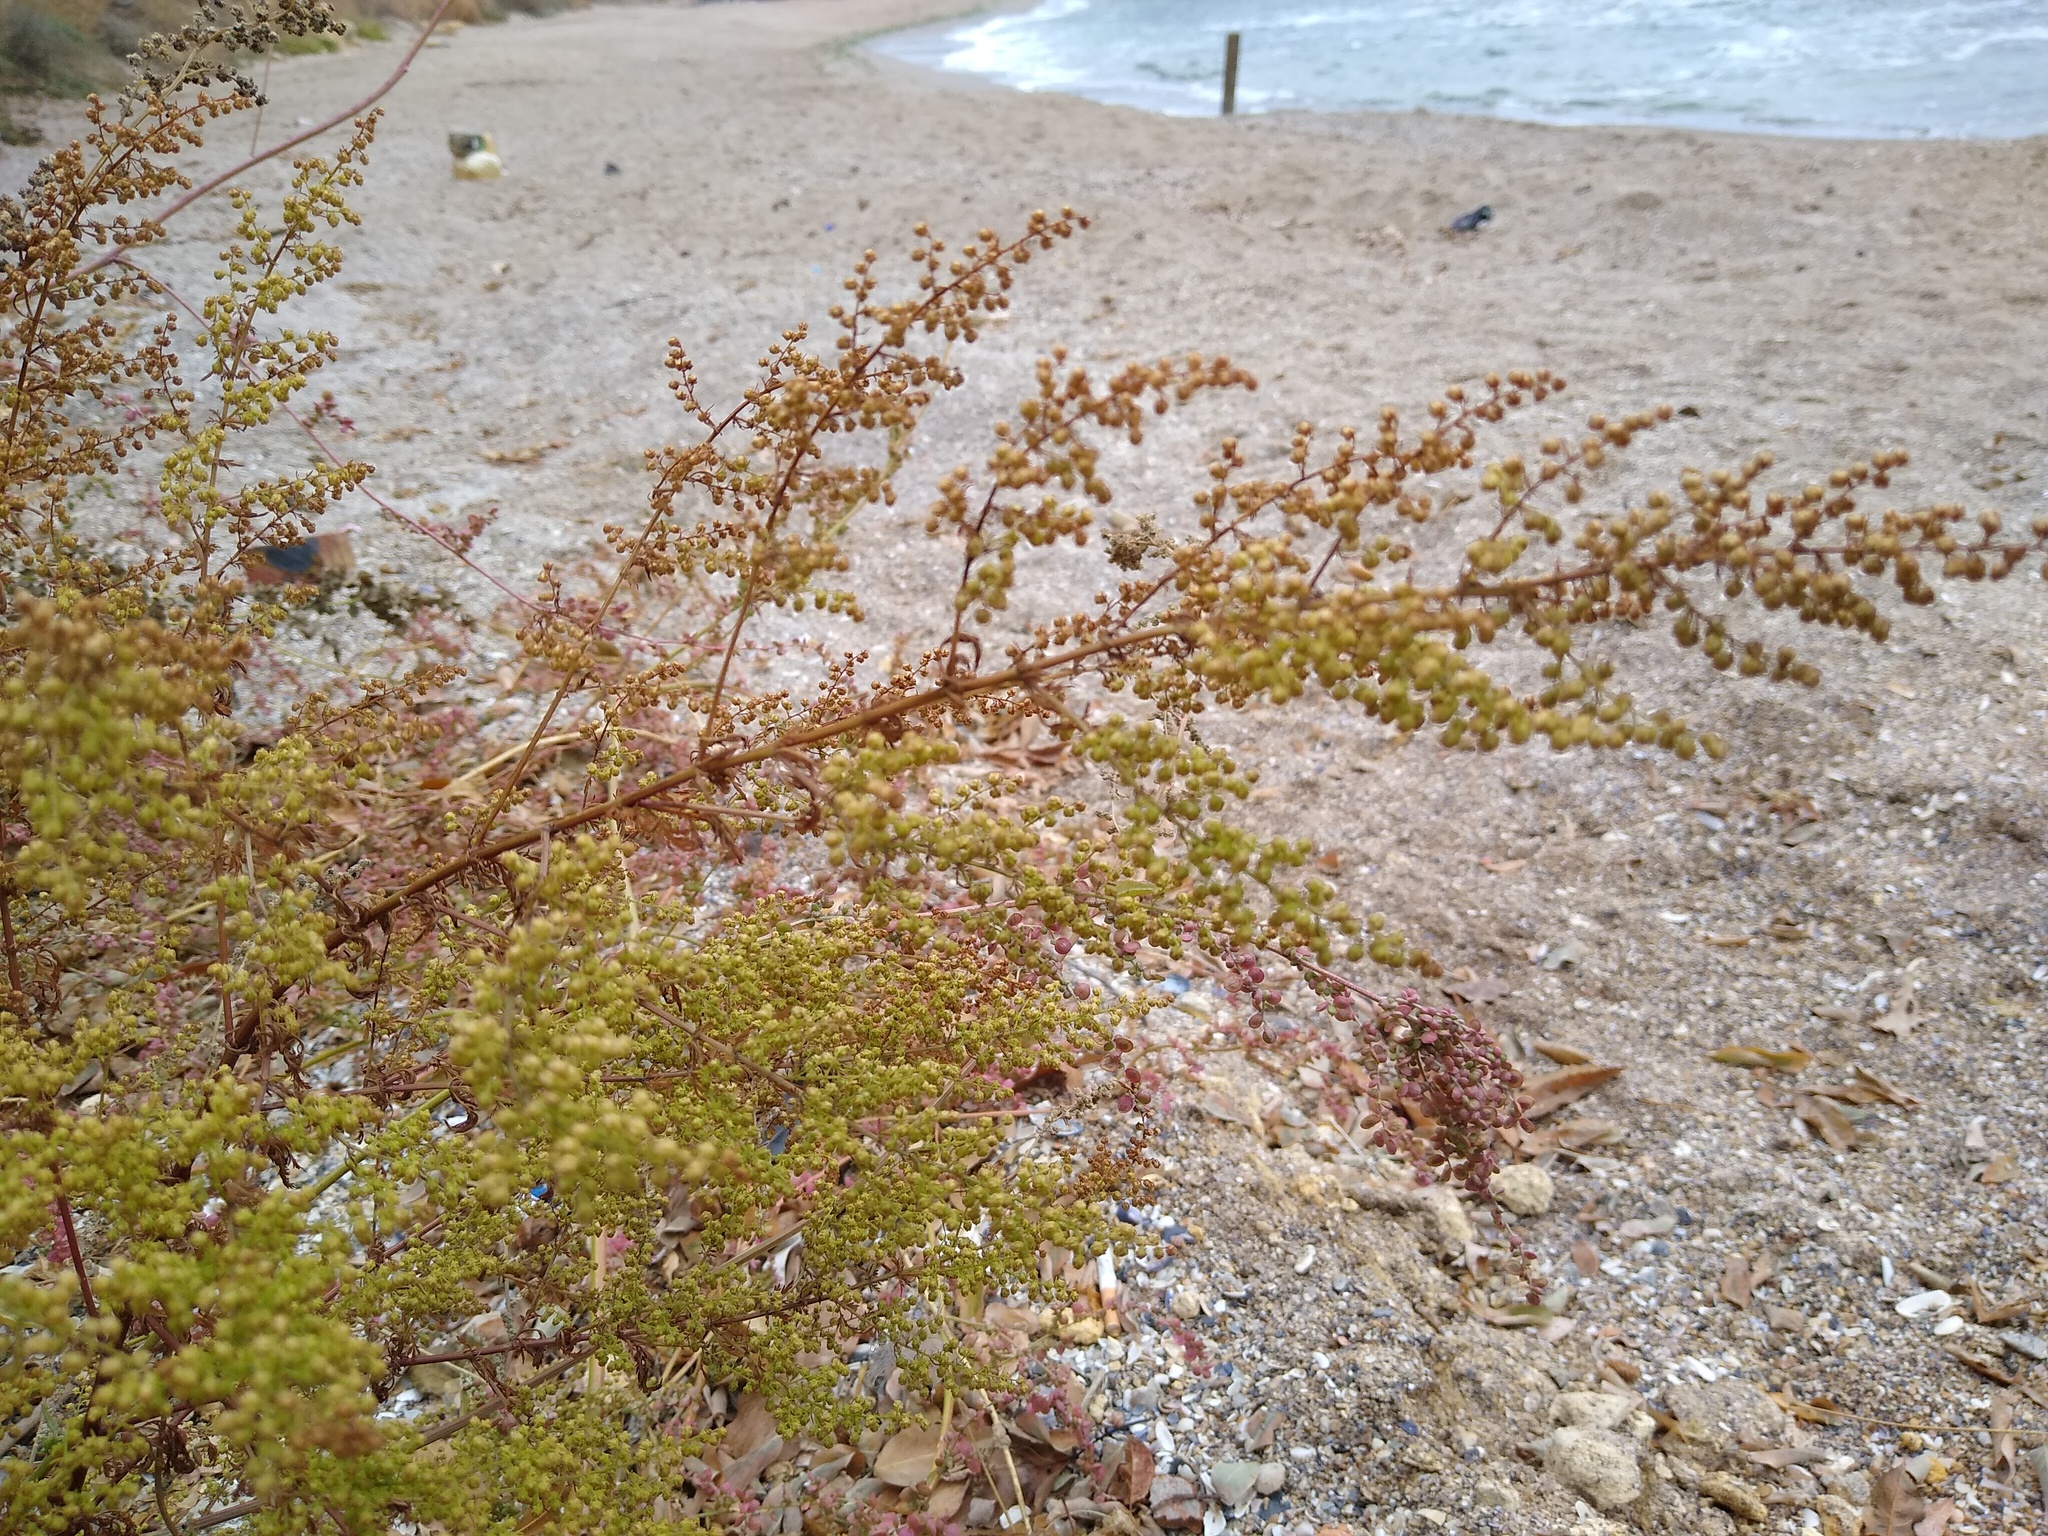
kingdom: Plantae
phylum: Tracheophyta
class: Magnoliopsida
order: Asterales
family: Asteraceae
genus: Artemisia
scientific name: Artemisia annua
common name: Sweet sagewort
